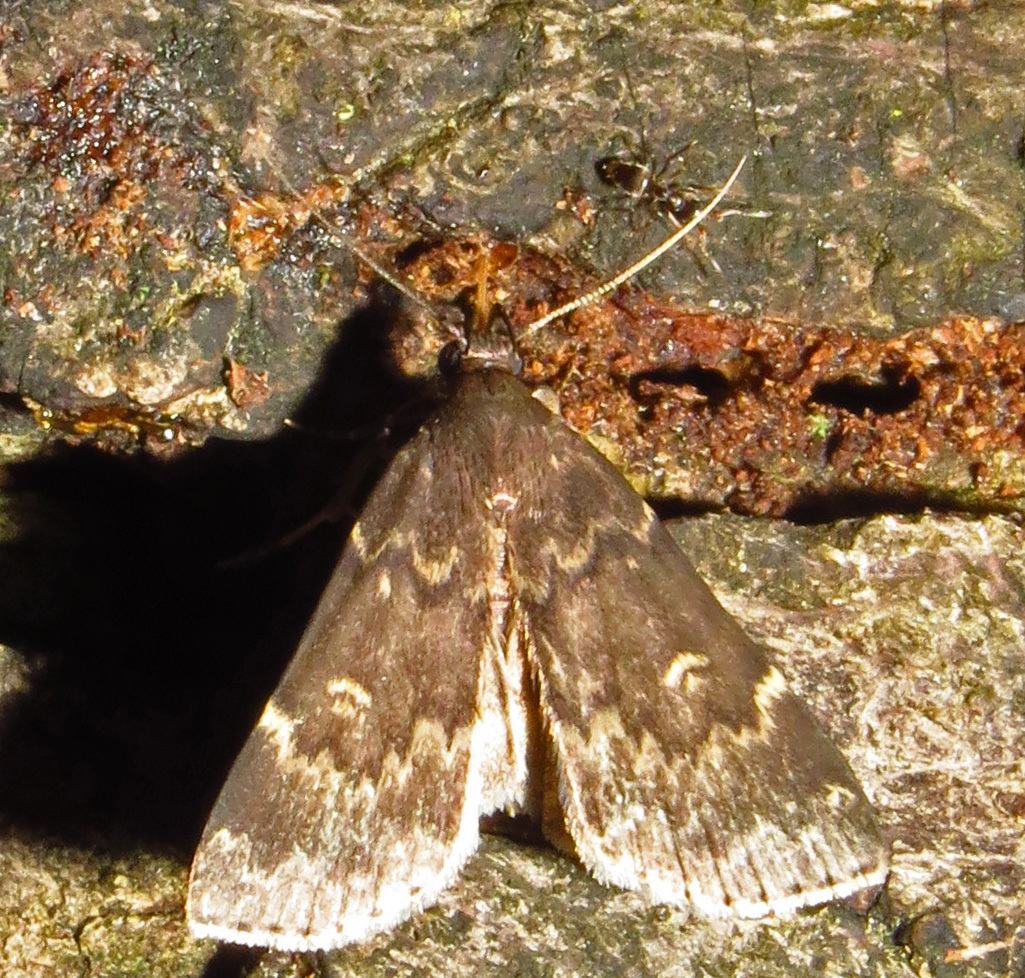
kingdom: Animalia
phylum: Arthropoda
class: Insecta
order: Lepidoptera
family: Erebidae
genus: Idia
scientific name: Idia lubricalis
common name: Twin-striped tabby
